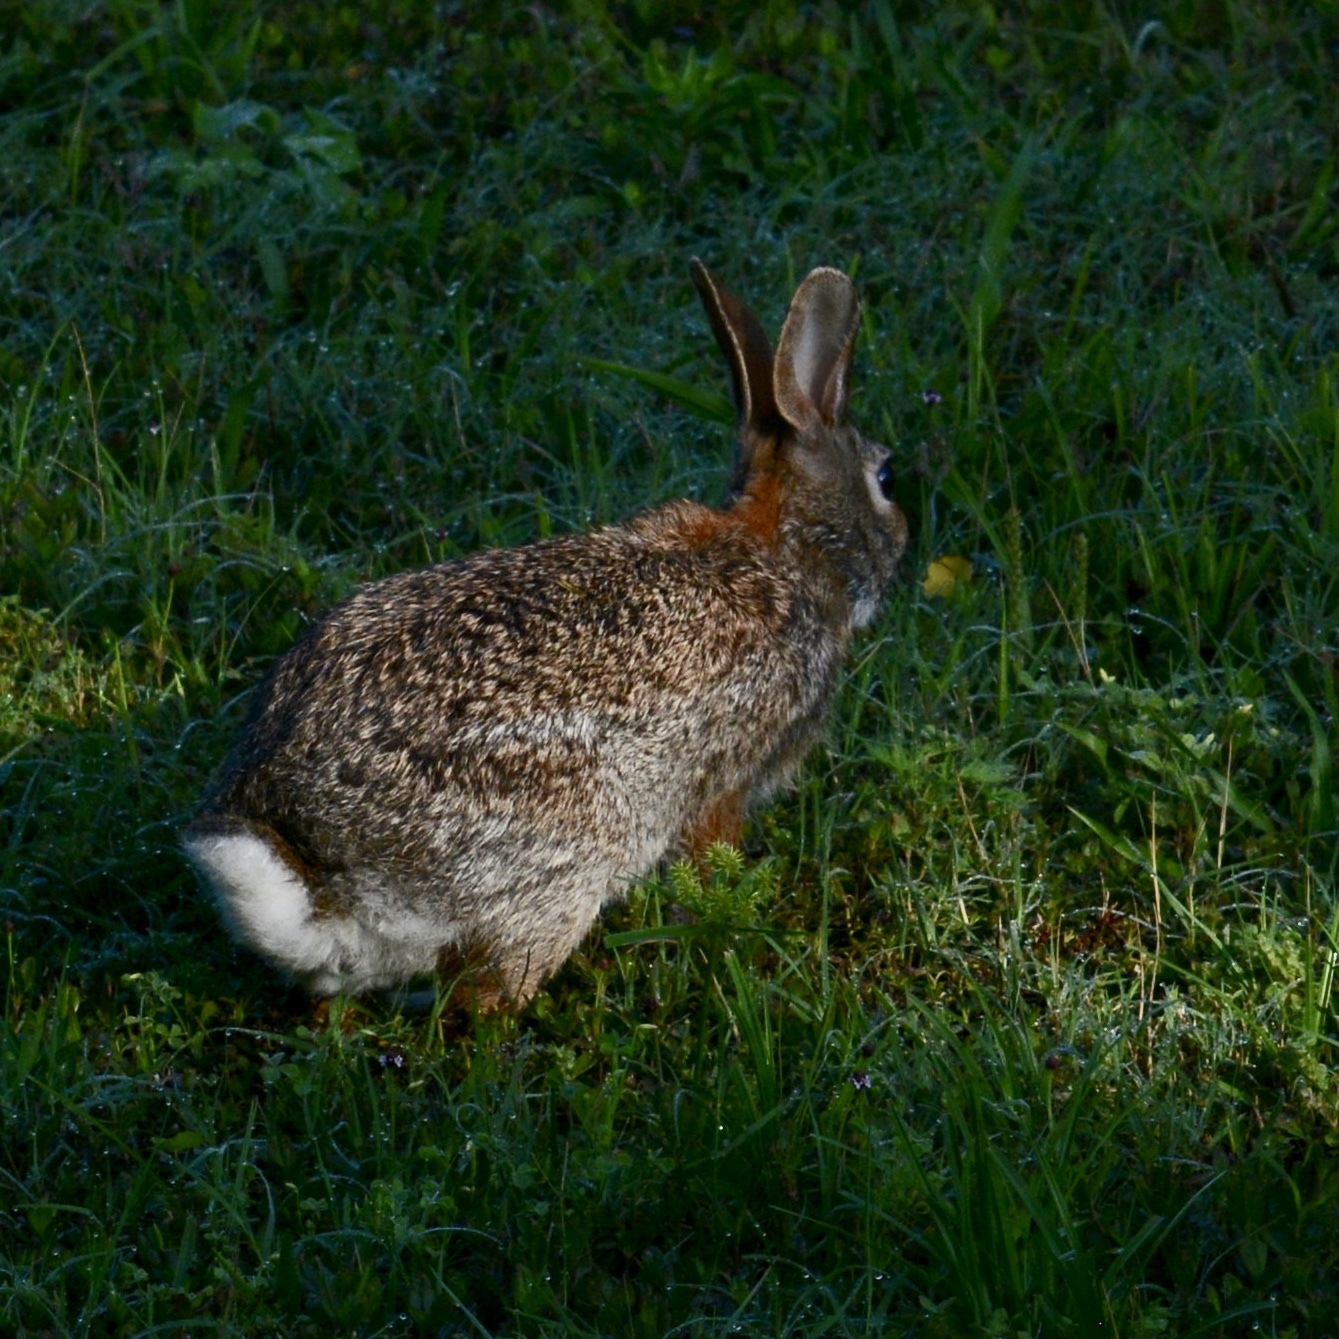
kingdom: Animalia
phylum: Chordata
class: Mammalia
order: Lagomorpha
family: Leporidae
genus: Sylvilagus
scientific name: Sylvilagus floridanus
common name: Eastern cottontail
